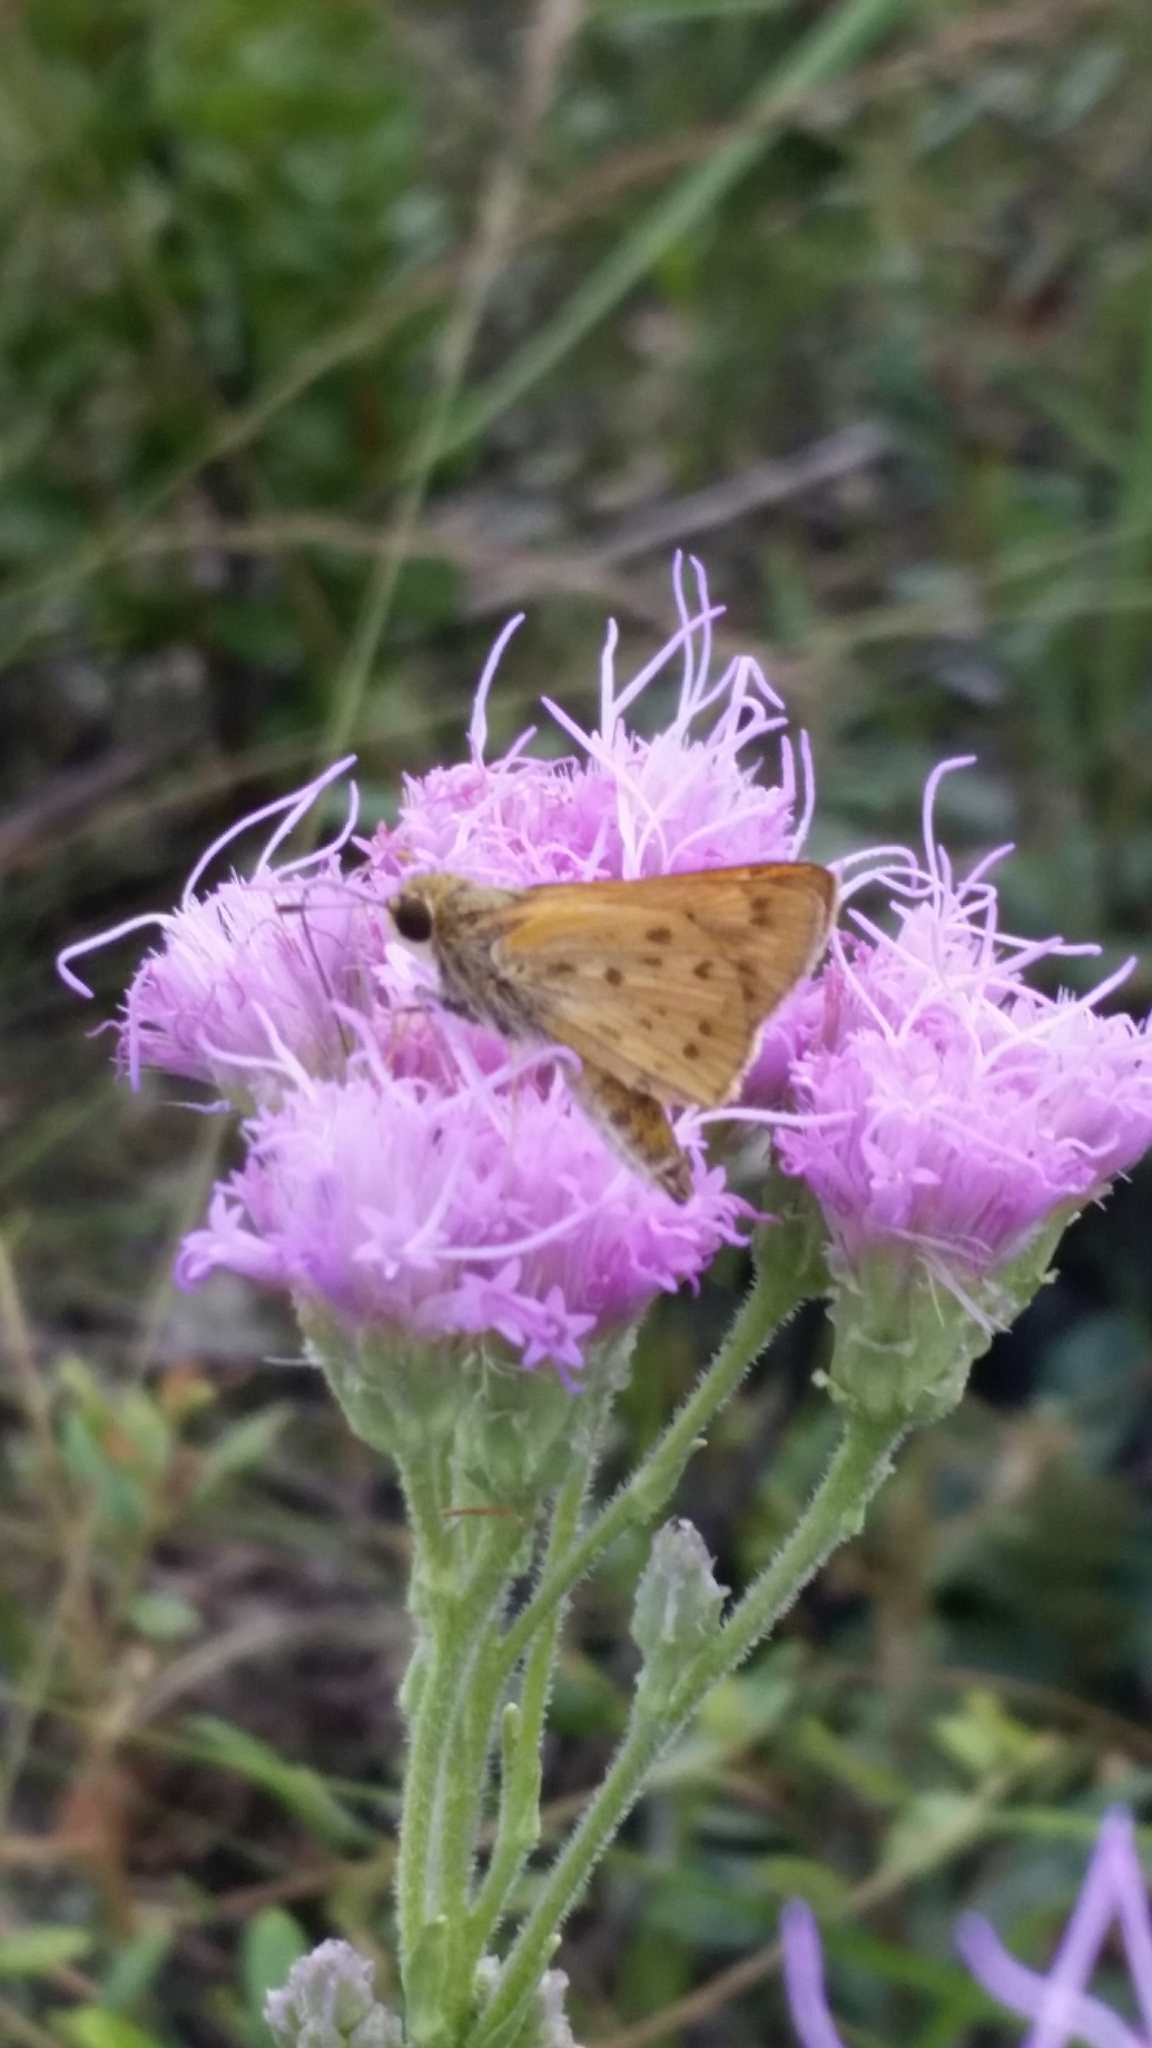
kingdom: Animalia
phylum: Arthropoda
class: Insecta
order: Lepidoptera
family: Hesperiidae
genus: Hylephila
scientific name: Hylephila phyleus
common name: Fiery skipper
